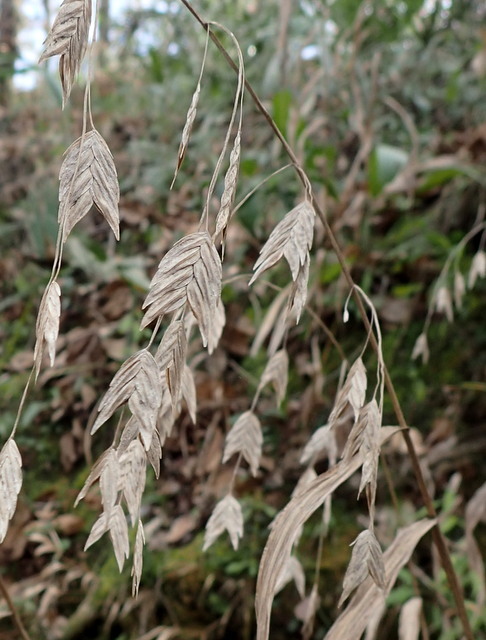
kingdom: Plantae
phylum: Tracheophyta
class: Liliopsida
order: Poales
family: Poaceae
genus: Chasmanthium
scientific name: Chasmanthium latifolium
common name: Broad-leaved chasmanthium
